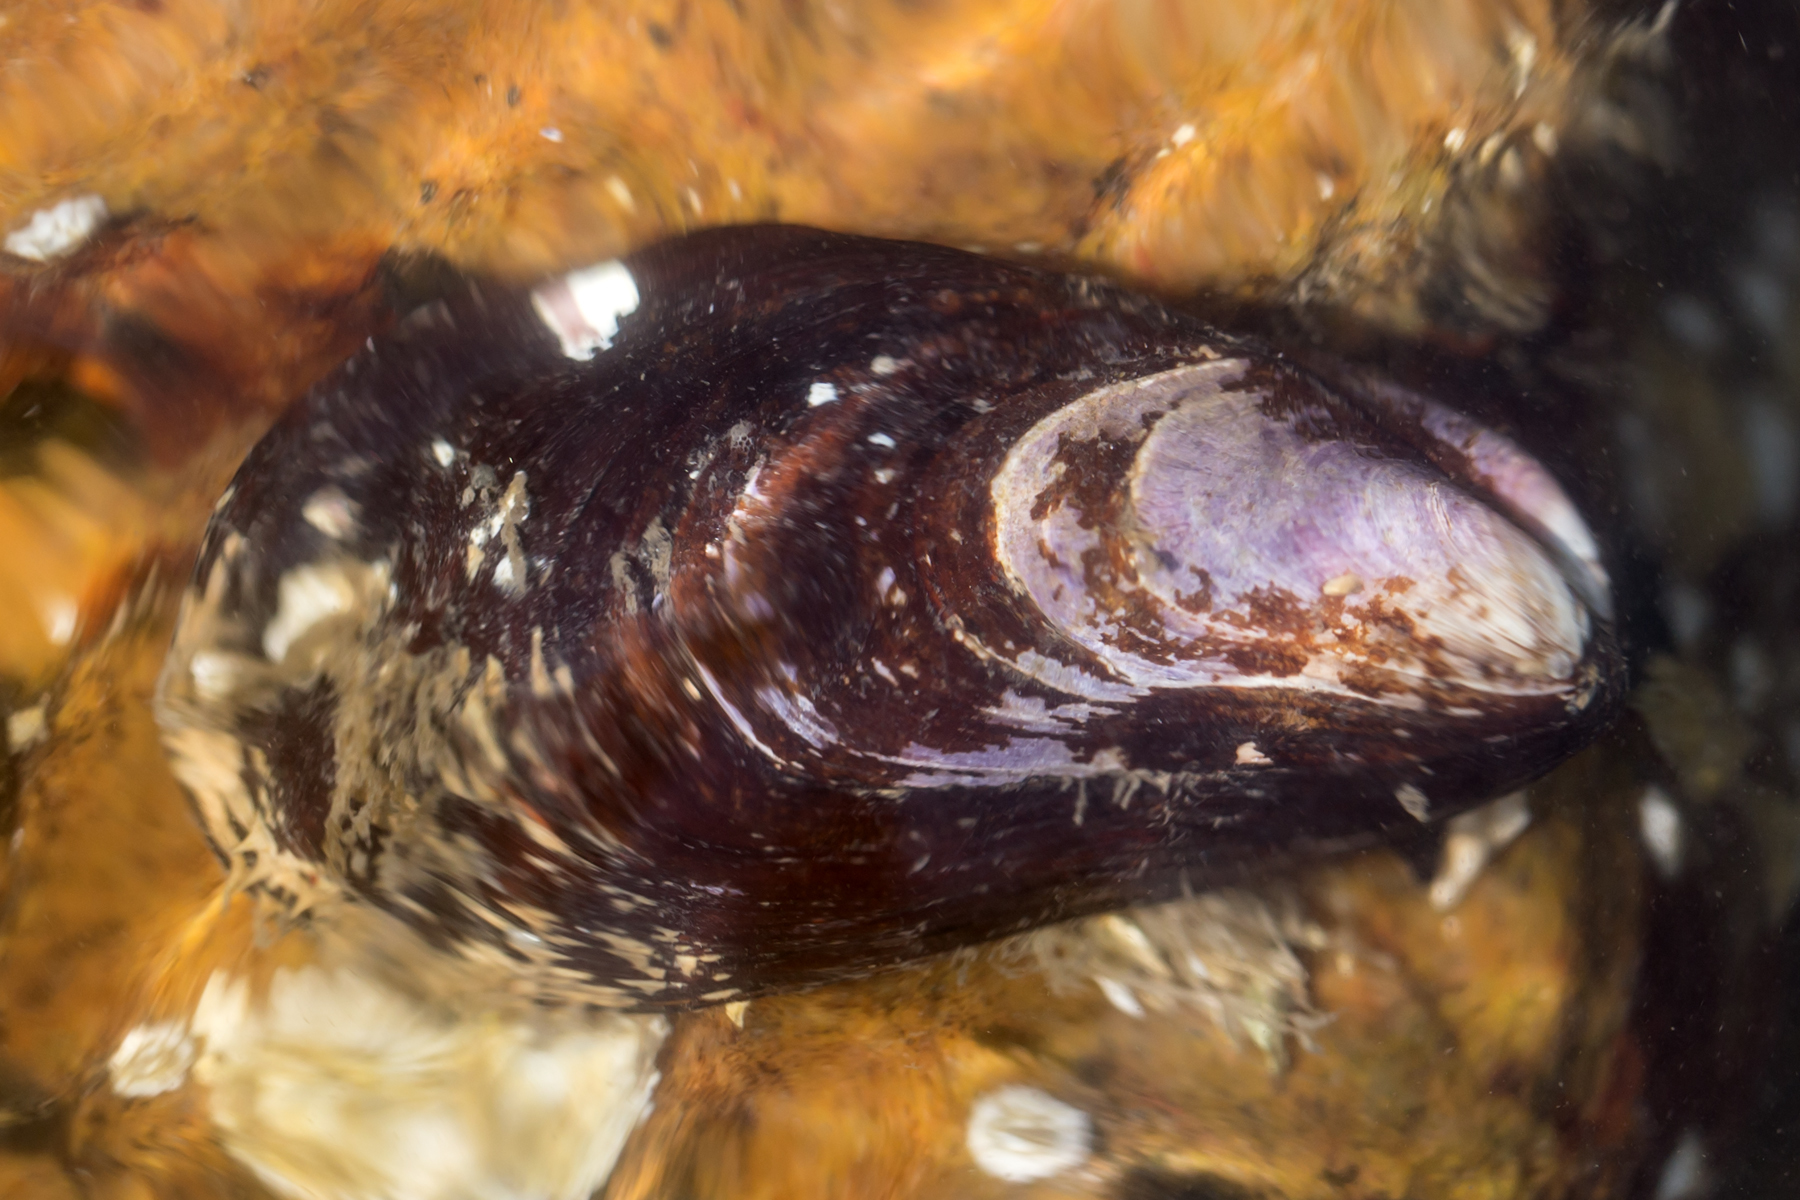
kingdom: Animalia
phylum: Mollusca
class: Bivalvia
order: Mytilida
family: Mytilidae
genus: Modiolus
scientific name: Modiolus modiolus
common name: Horse-mussel
